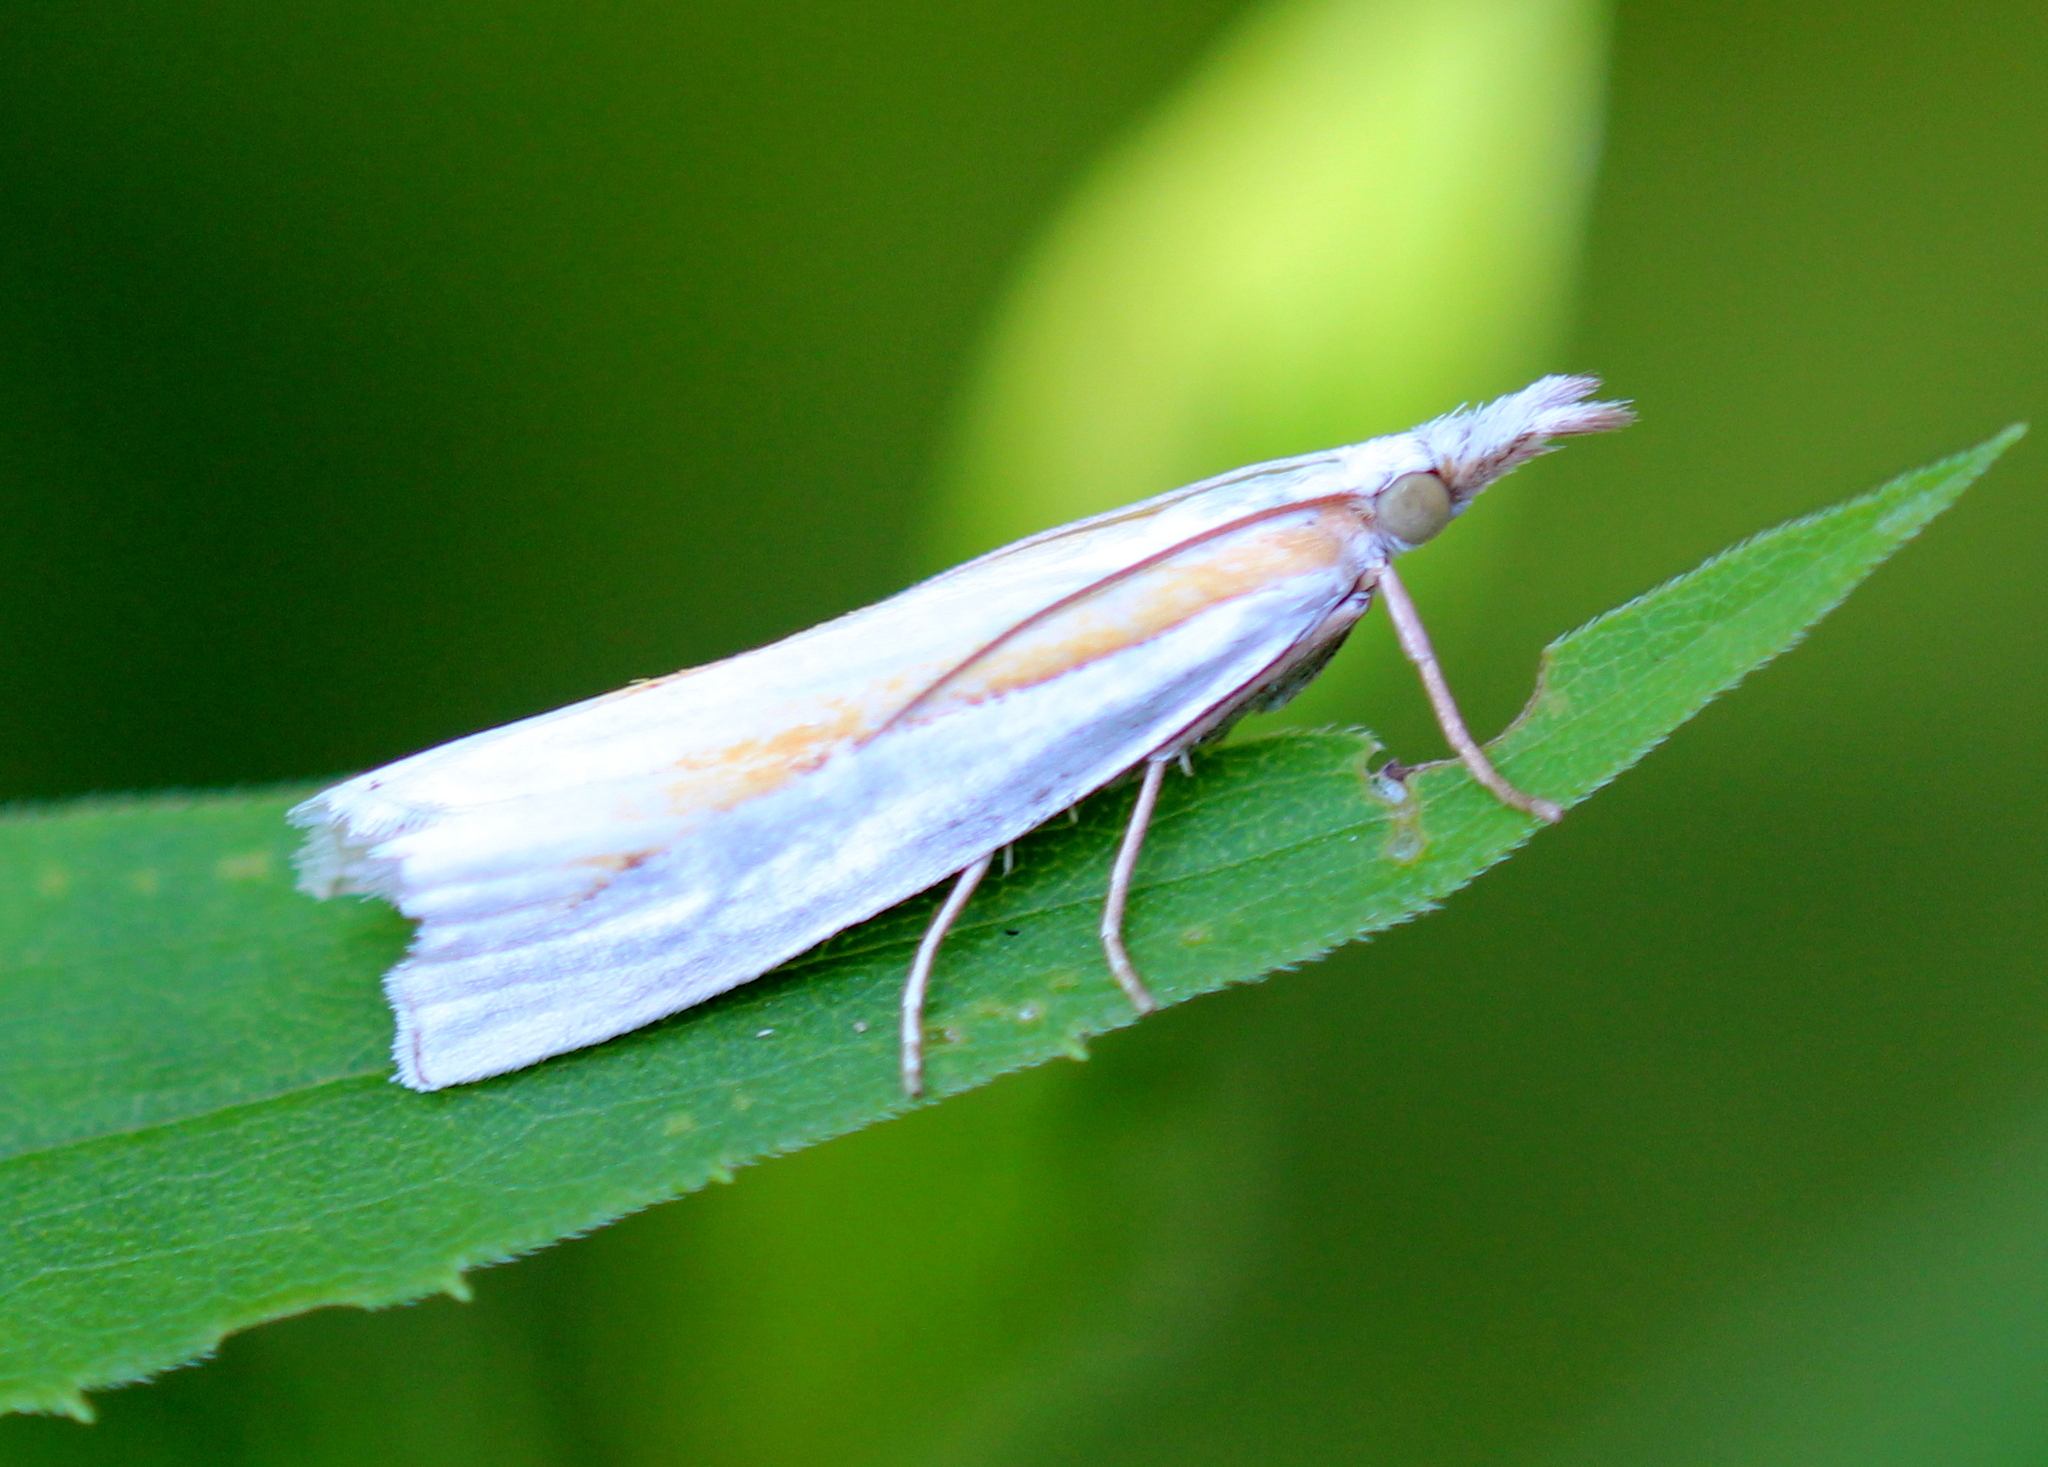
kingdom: Animalia
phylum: Arthropoda
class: Insecta
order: Lepidoptera
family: Crambidae
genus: Crambus
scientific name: Crambus girardellus
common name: Girard's grass-veneer
